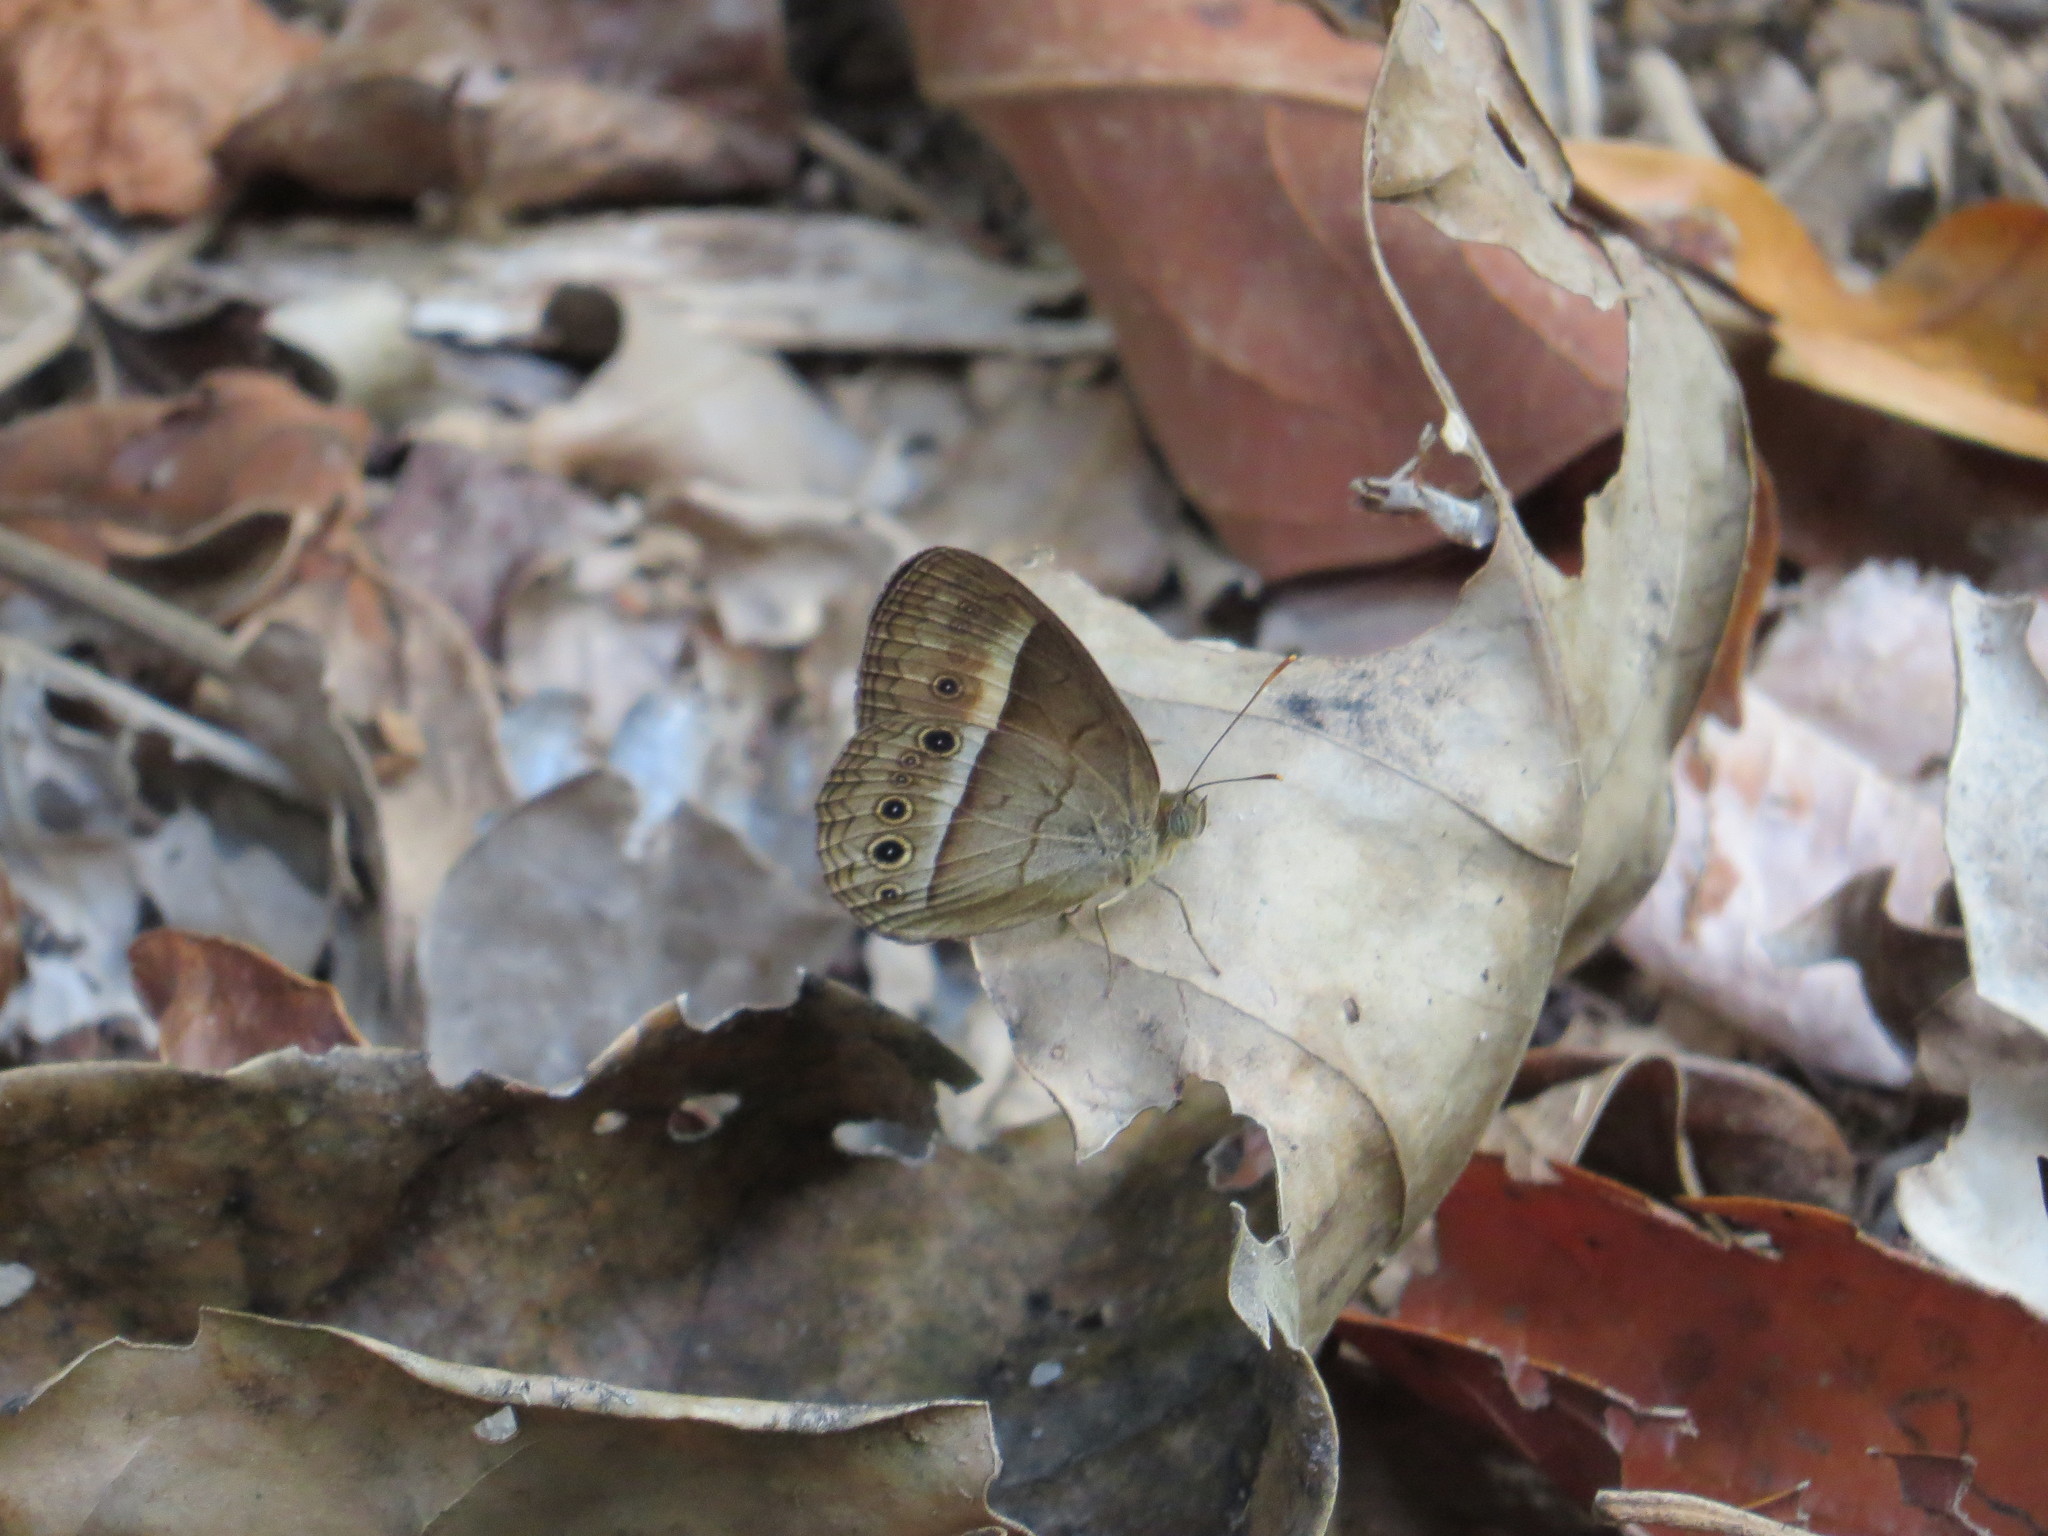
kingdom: Animalia
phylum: Arthropoda
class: Insecta
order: Lepidoptera
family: Nymphalidae
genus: Mycalesis
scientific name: Mycalesis terminus
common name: Orange bushbrown
